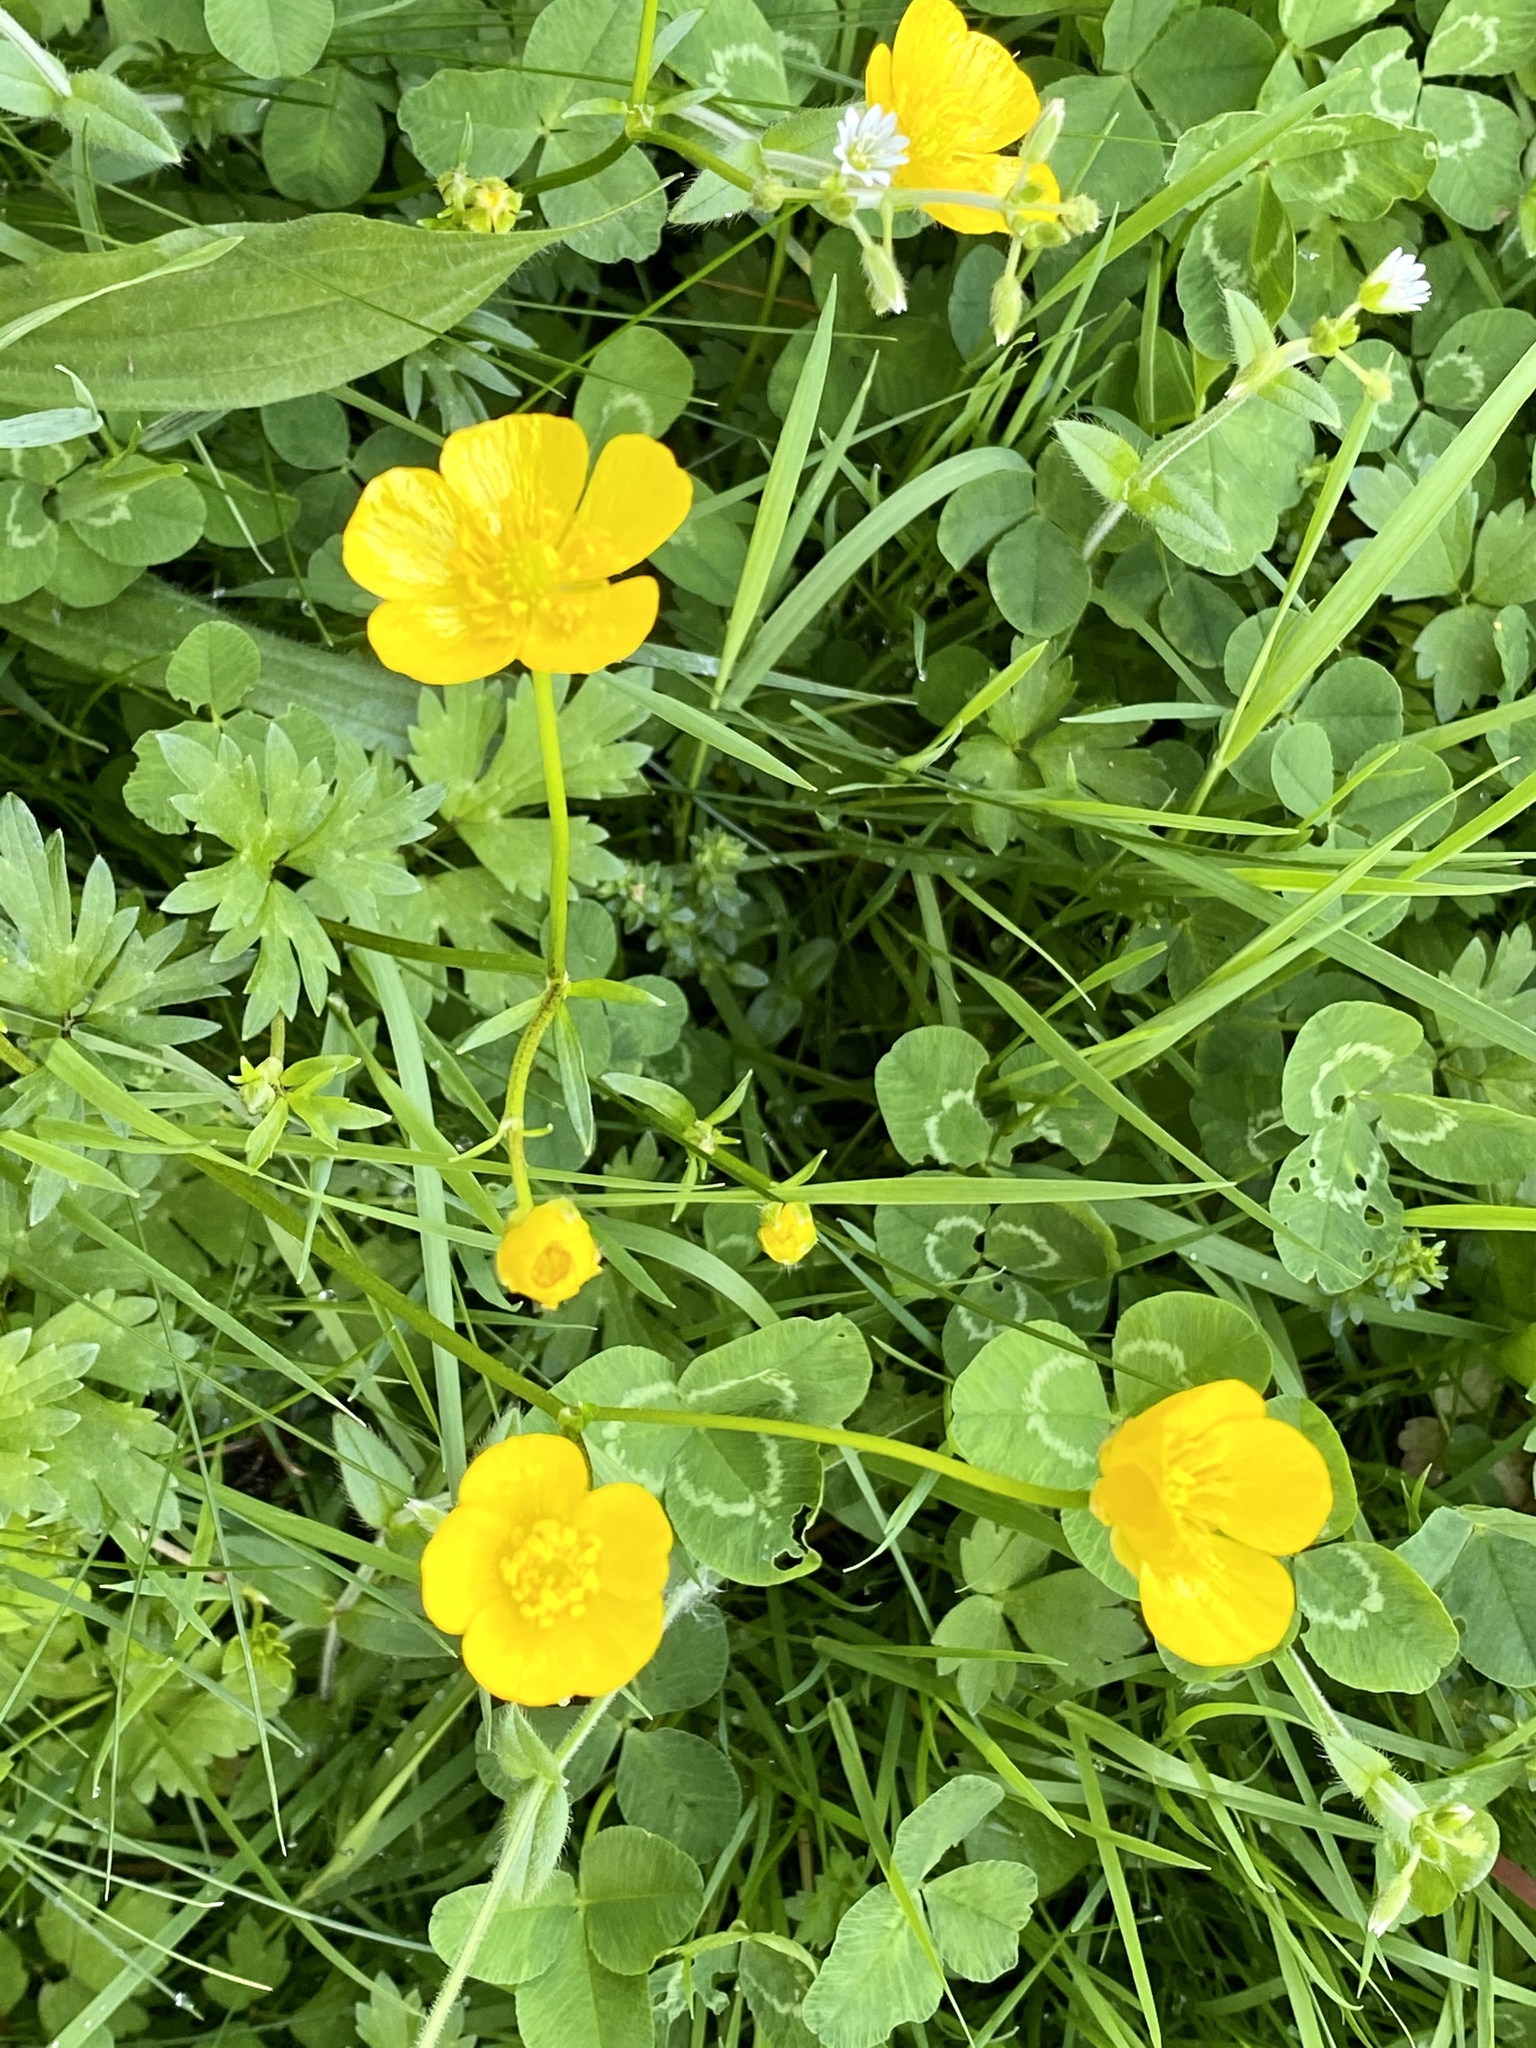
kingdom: Plantae
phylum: Tracheophyta
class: Magnoliopsida
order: Ranunculales
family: Ranunculaceae
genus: Ranunculus
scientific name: Ranunculus repens
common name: Creeping buttercup
